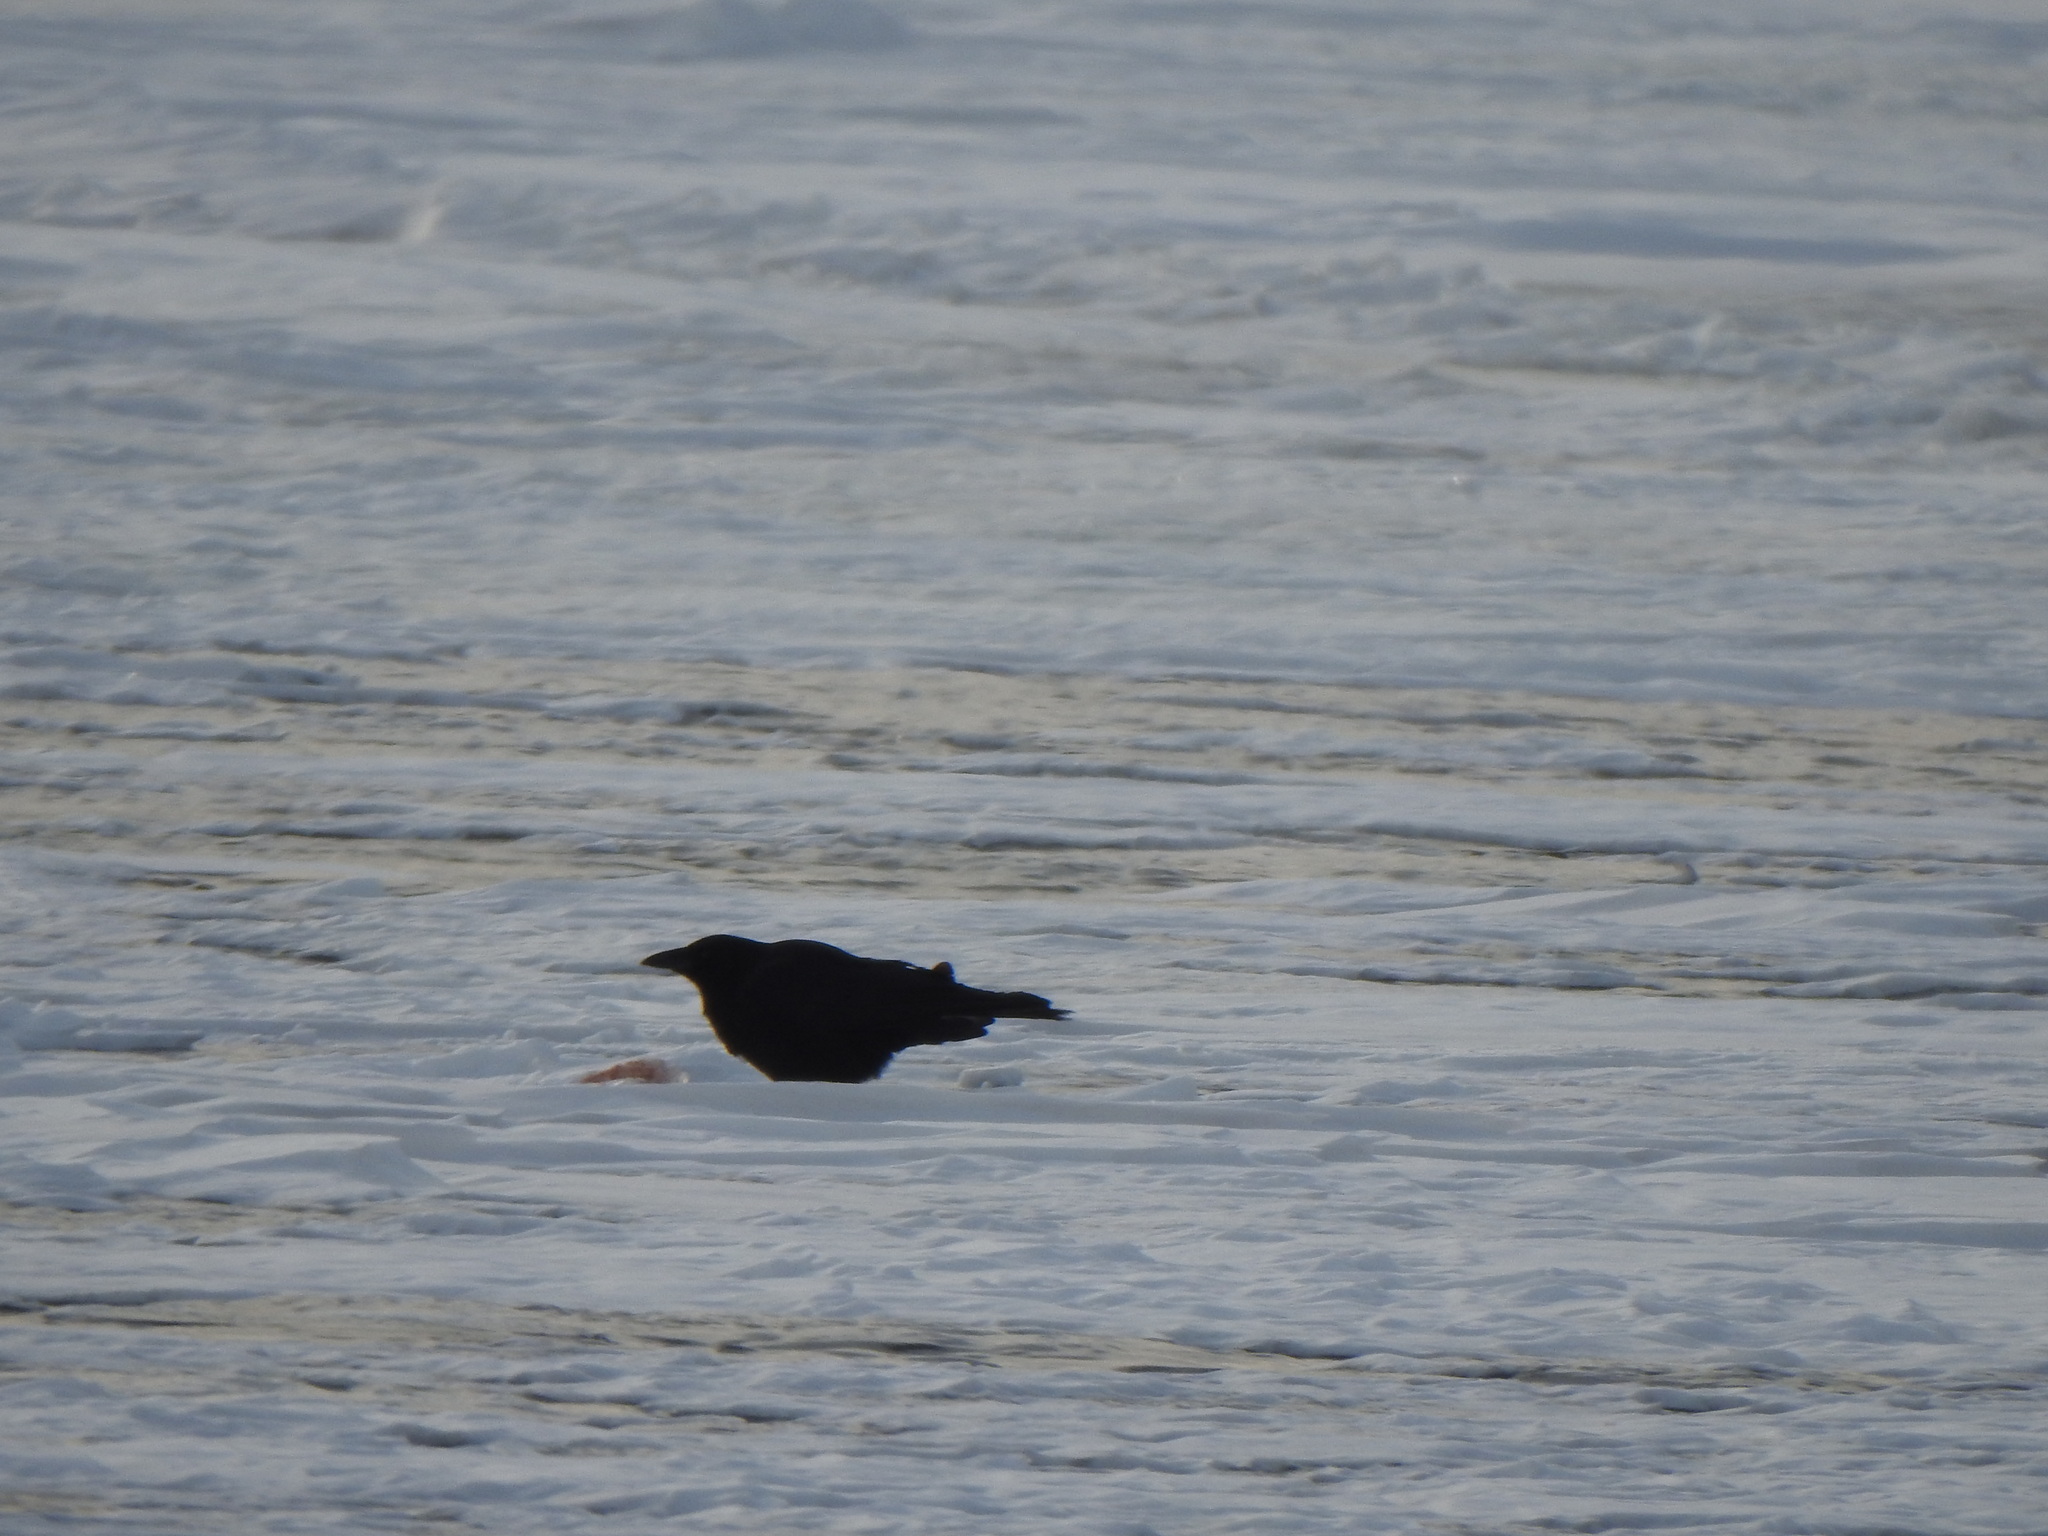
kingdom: Animalia
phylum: Chordata
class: Aves
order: Passeriformes
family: Corvidae
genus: Corvus
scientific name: Corvus brachyrhynchos
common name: American crow
